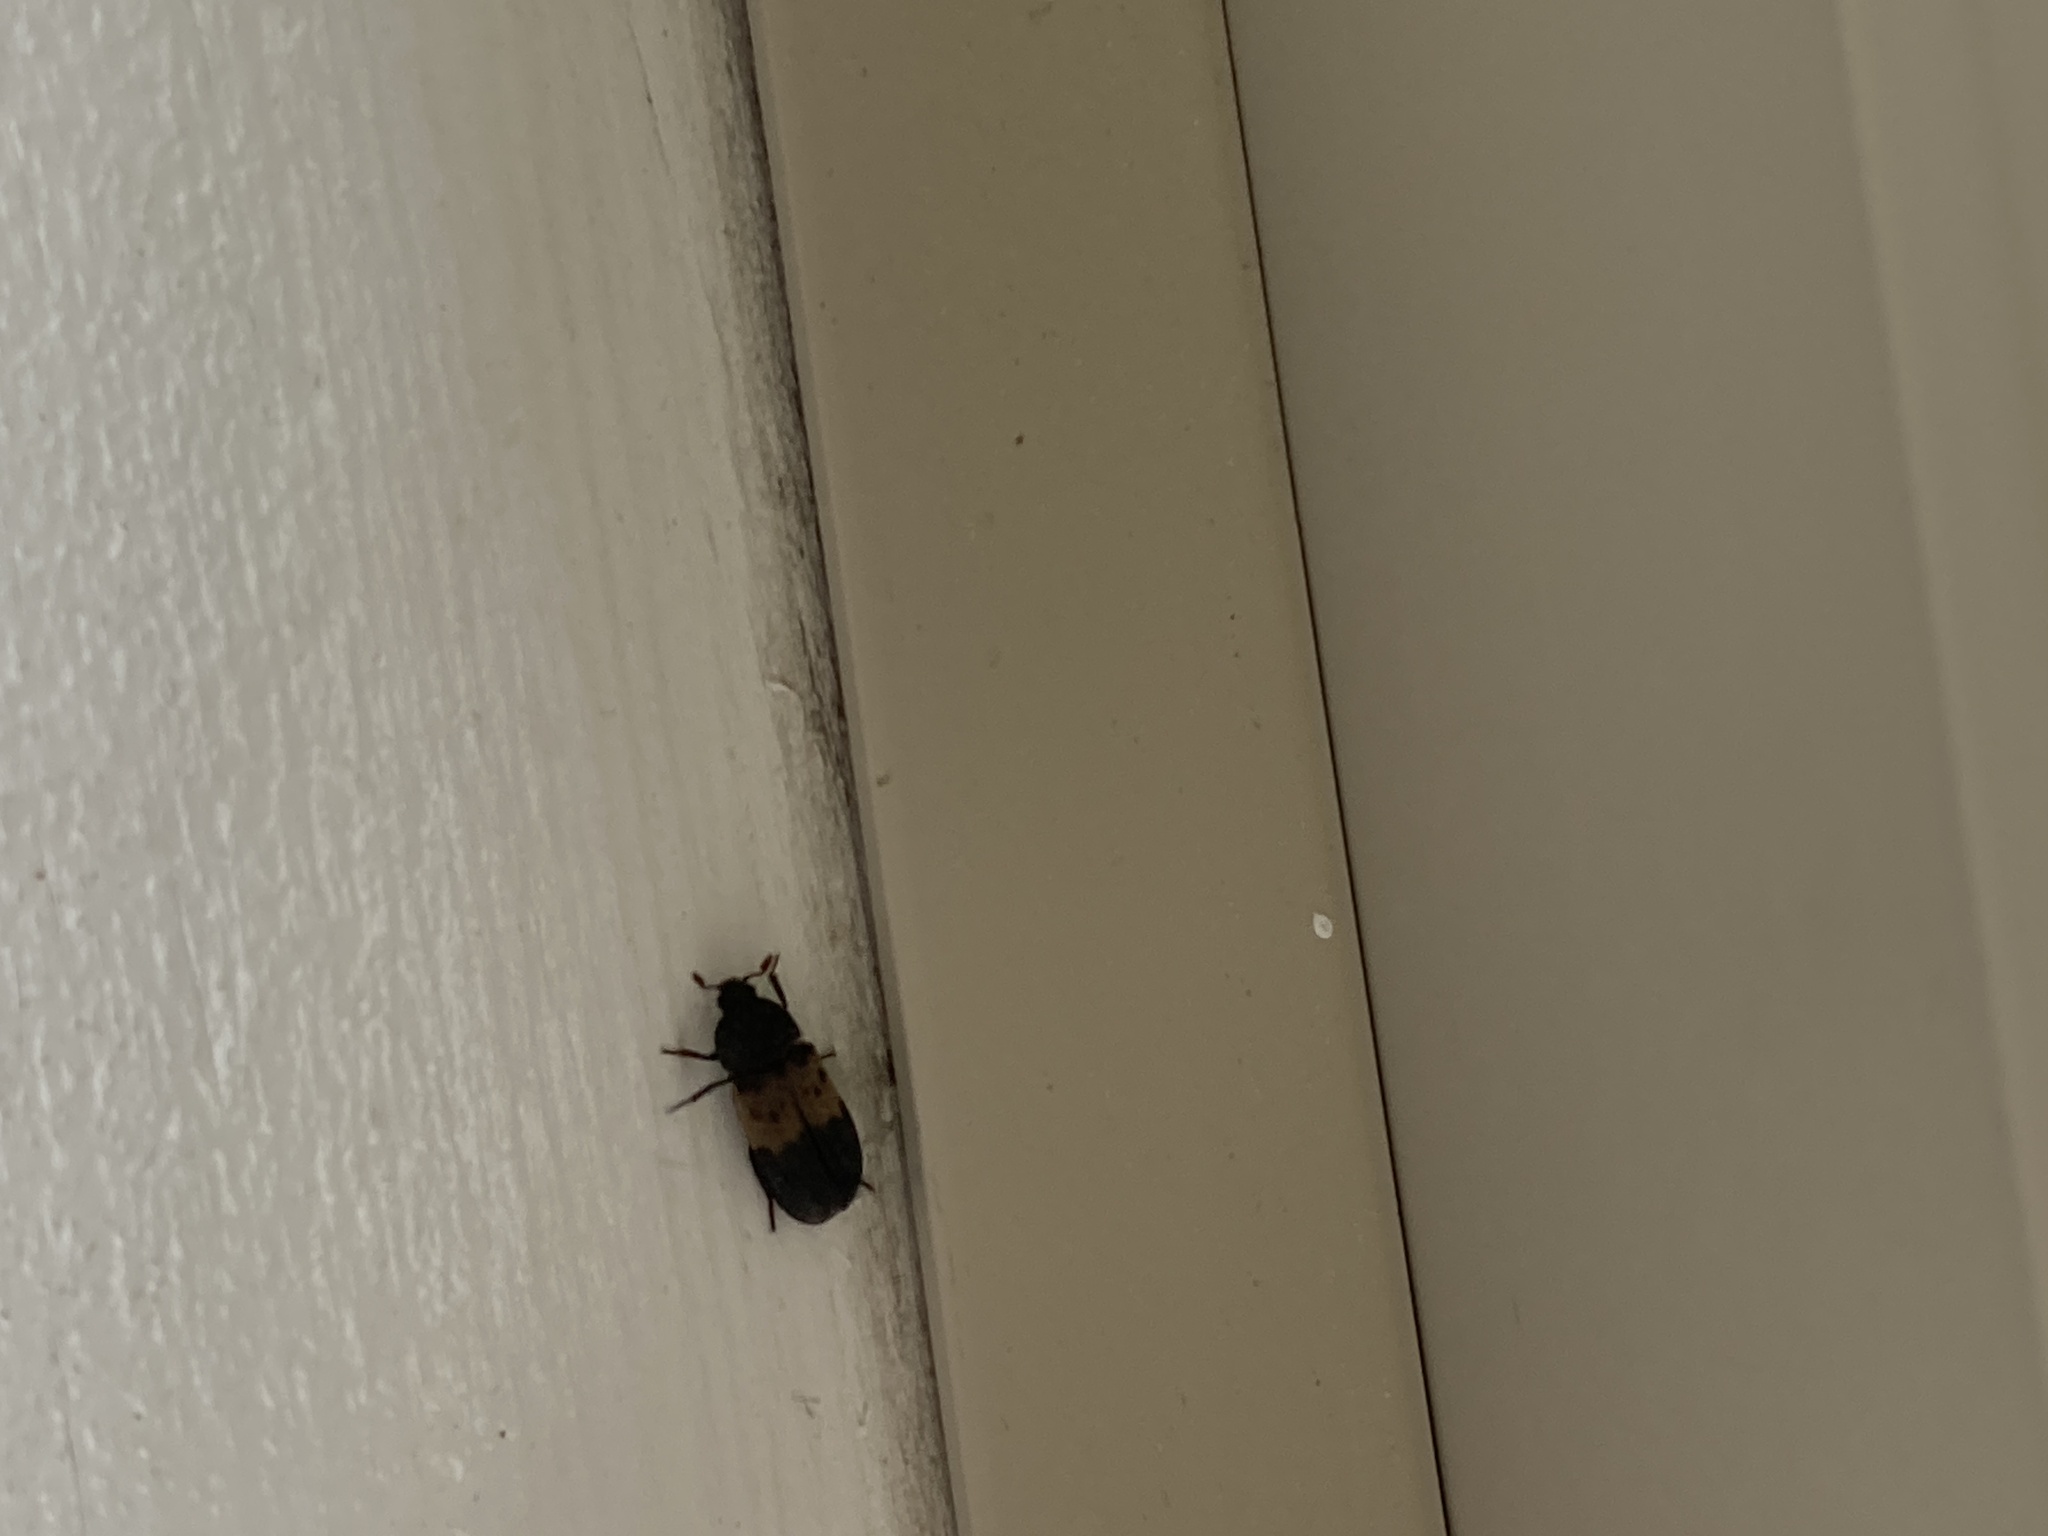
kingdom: Animalia
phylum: Arthropoda
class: Insecta
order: Coleoptera
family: Dermestidae
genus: Dermestes
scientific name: Dermestes lardarius
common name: Larder beetle
